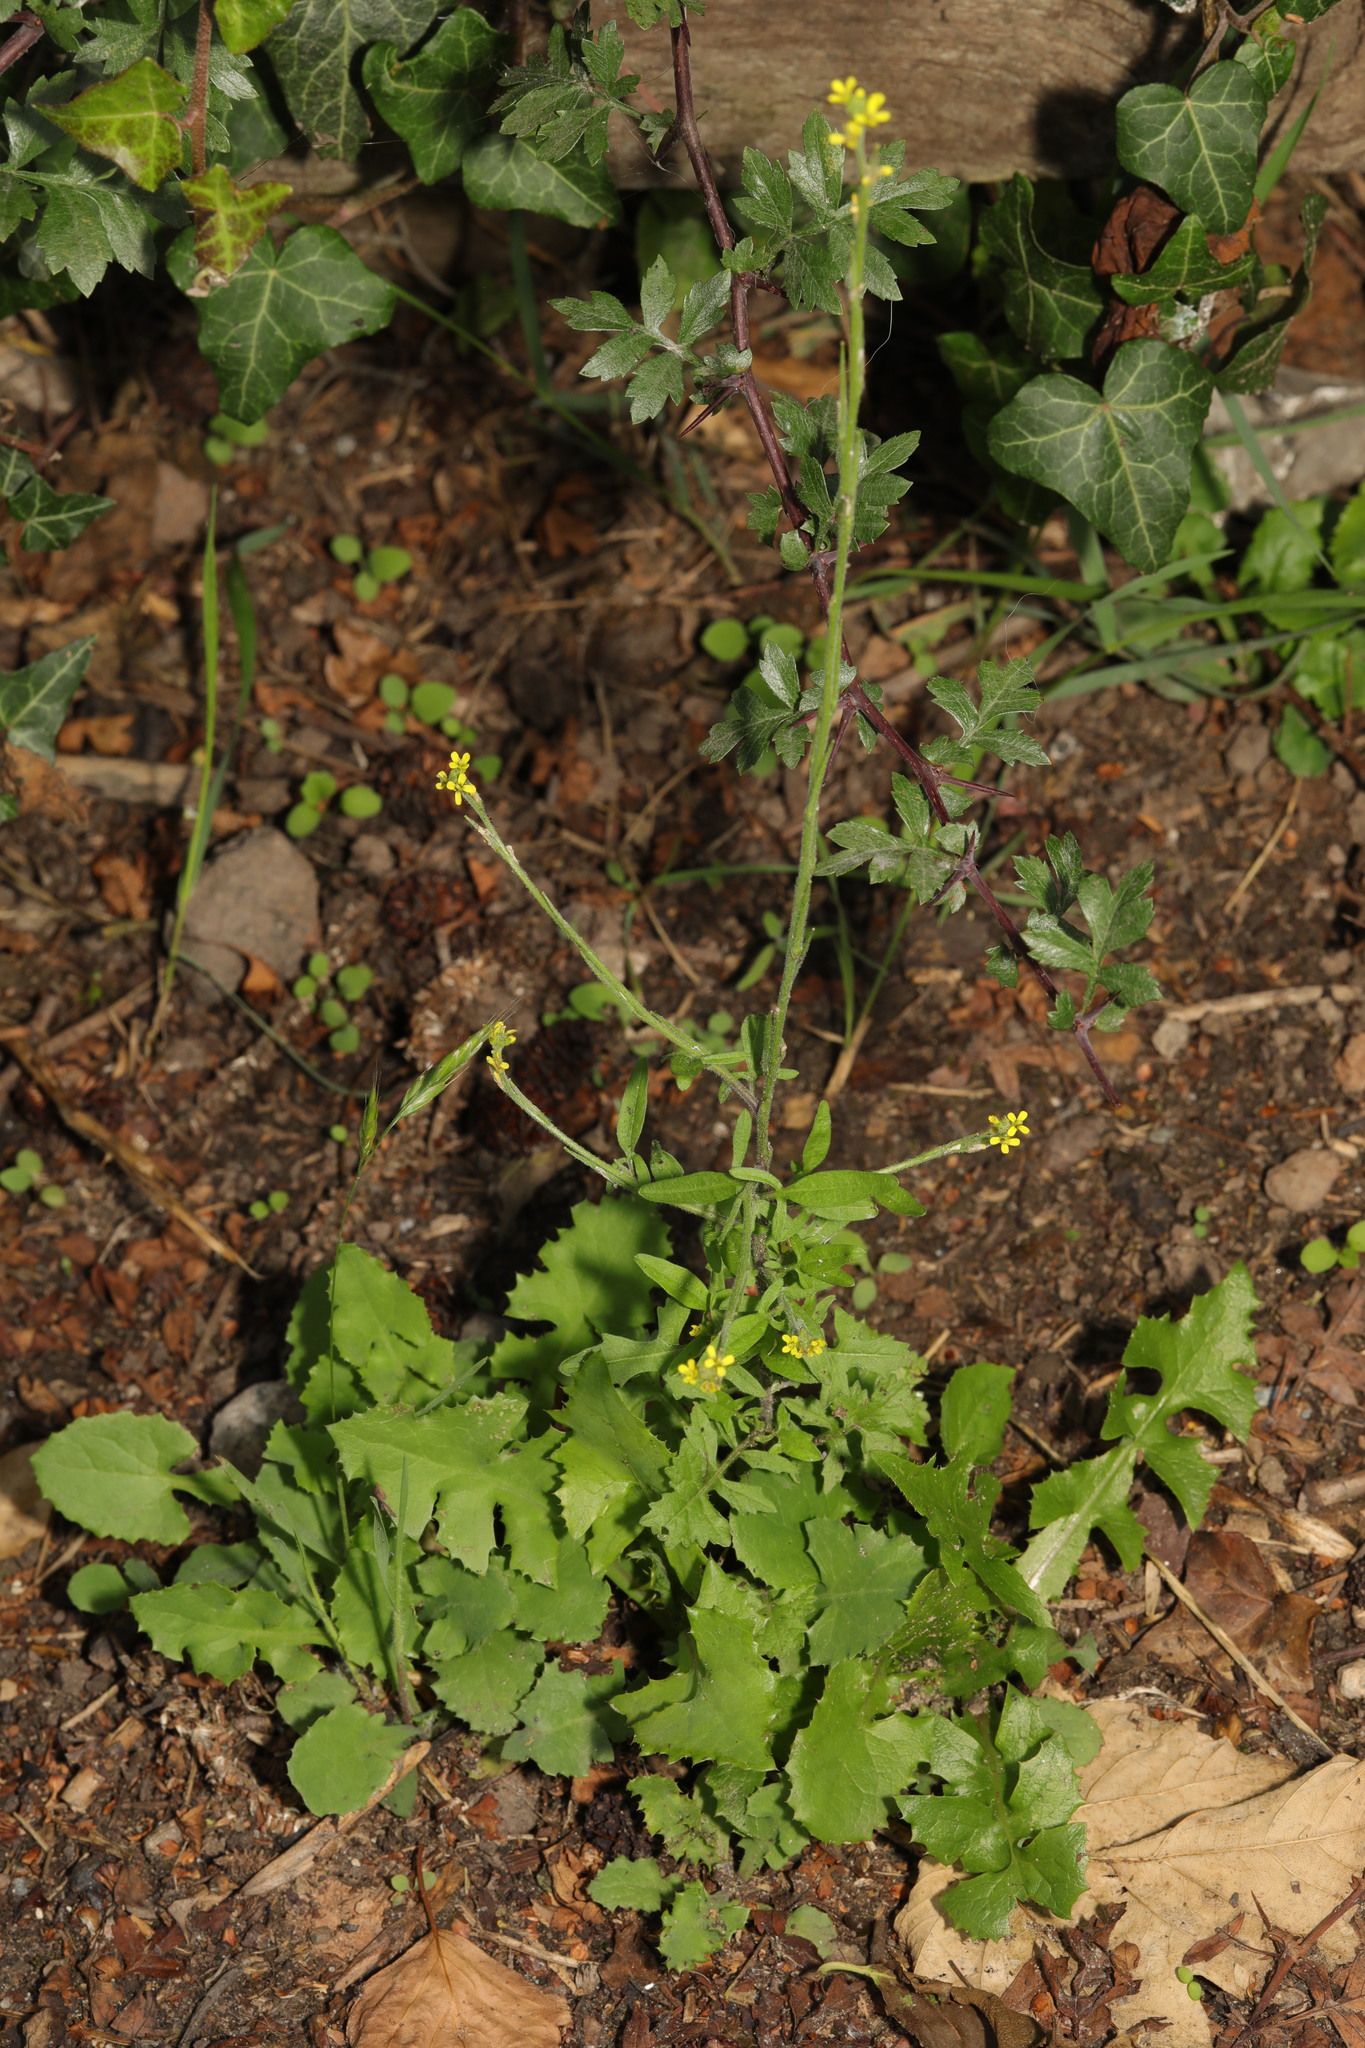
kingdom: Plantae
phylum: Tracheophyta
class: Magnoliopsida
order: Brassicales
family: Brassicaceae
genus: Sisymbrium
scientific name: Sisymbrium officinale
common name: Hedge mustard
